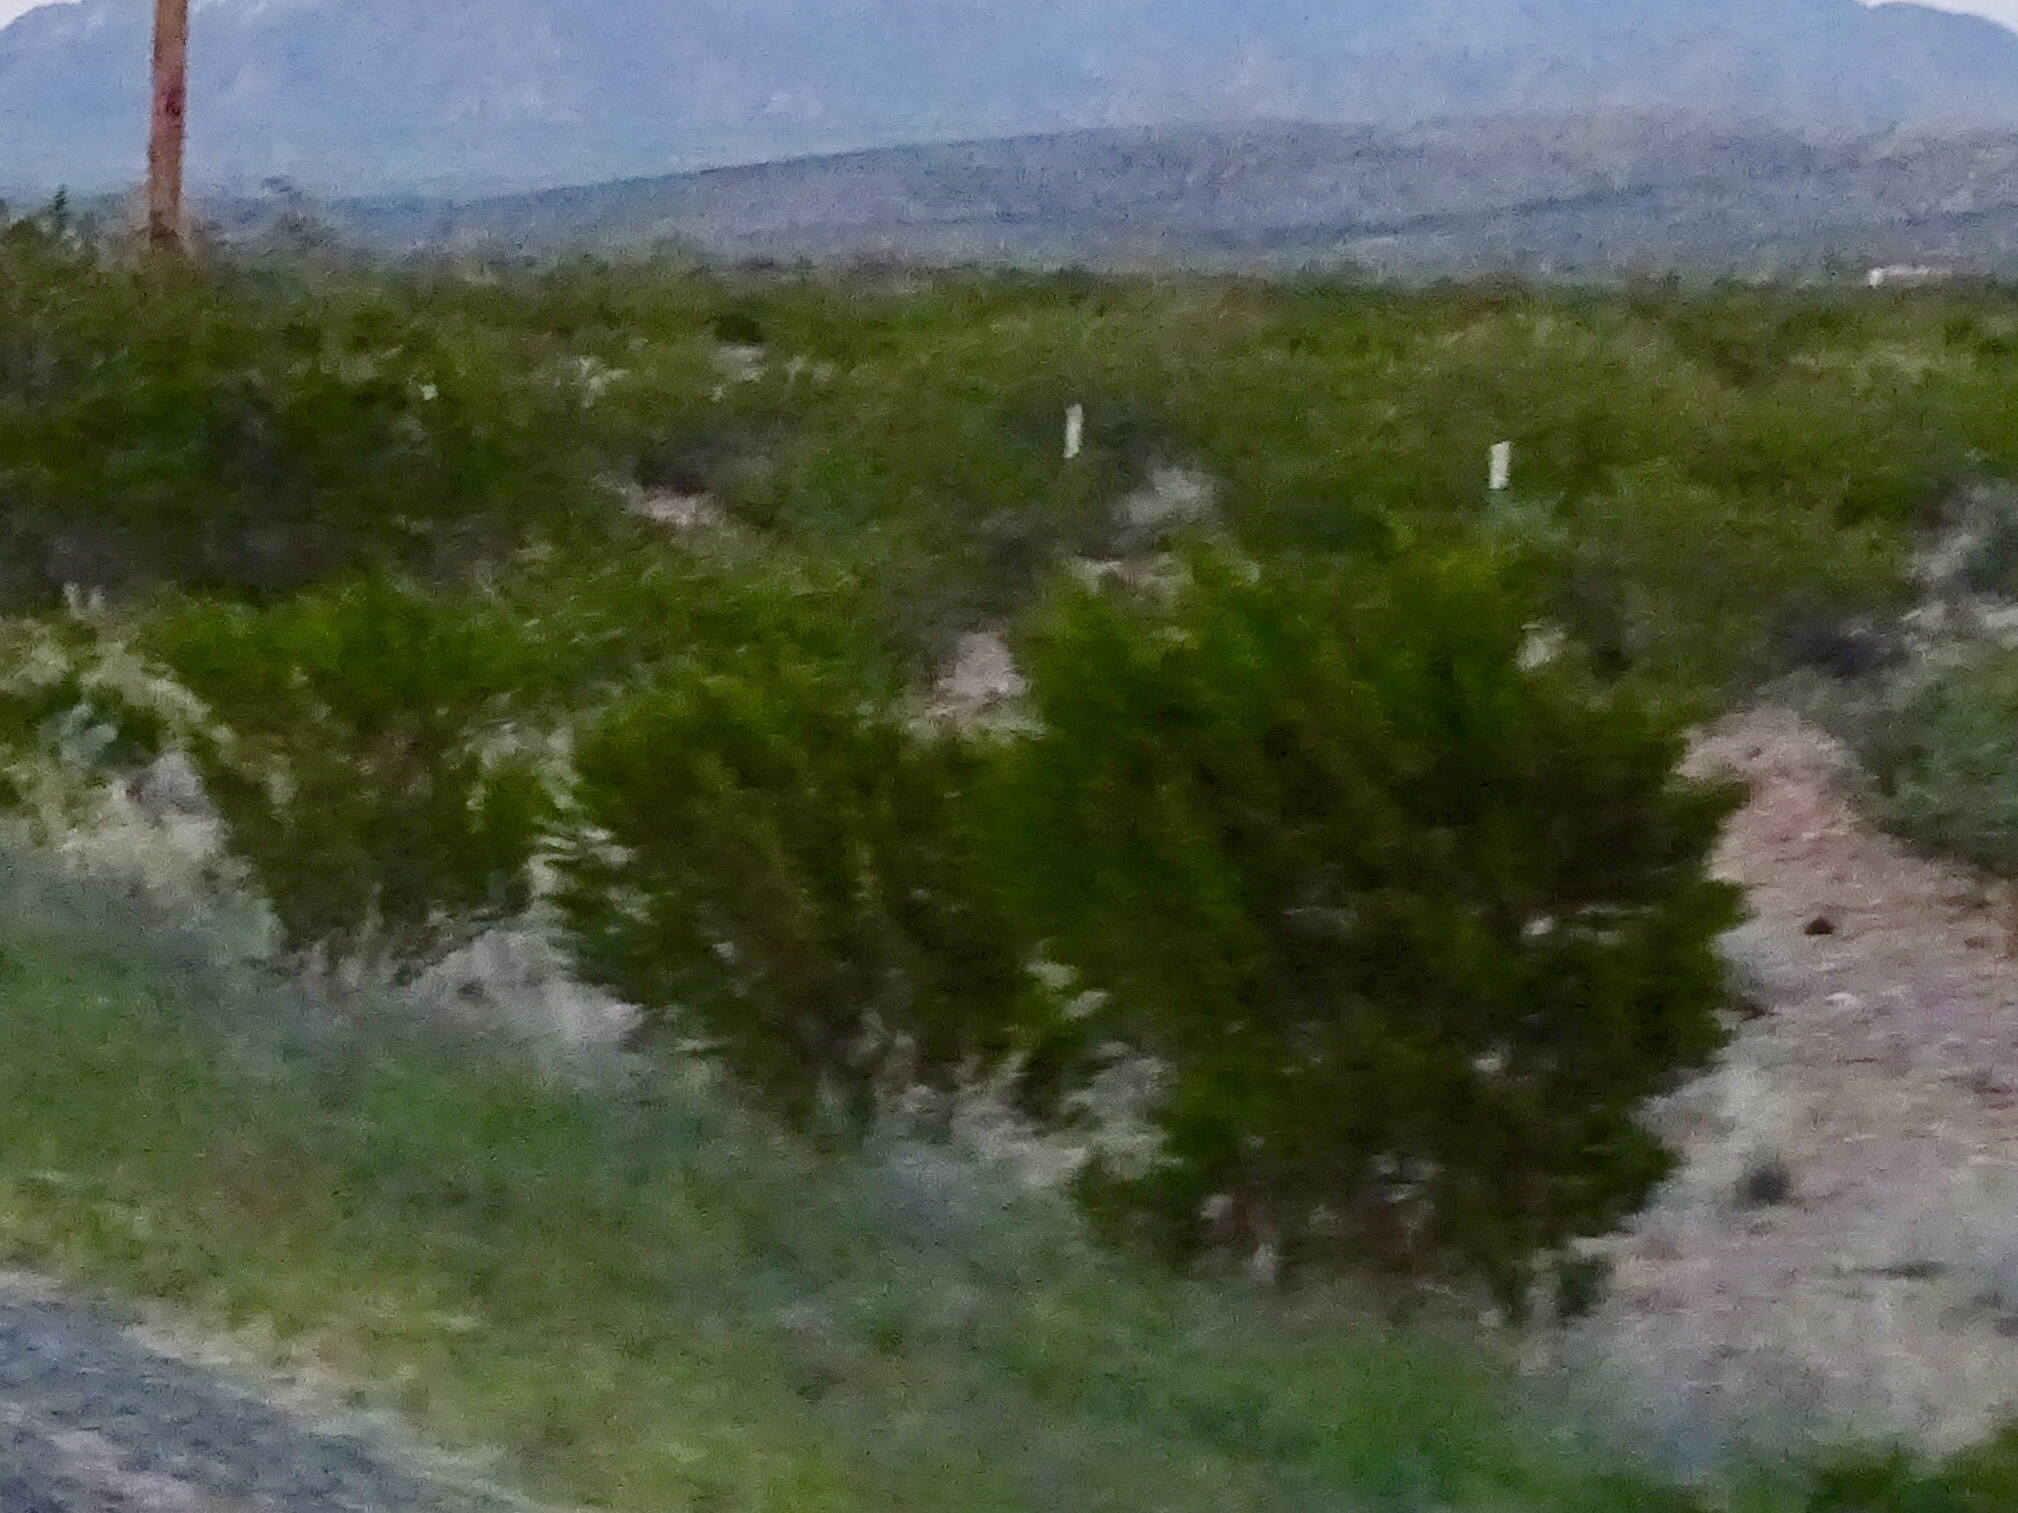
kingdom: Plantae
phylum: Tracheophyta
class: Magnoliopsida
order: Zygophyllales
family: Zygophyllaceae
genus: Larrea
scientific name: Larrea tridentata
